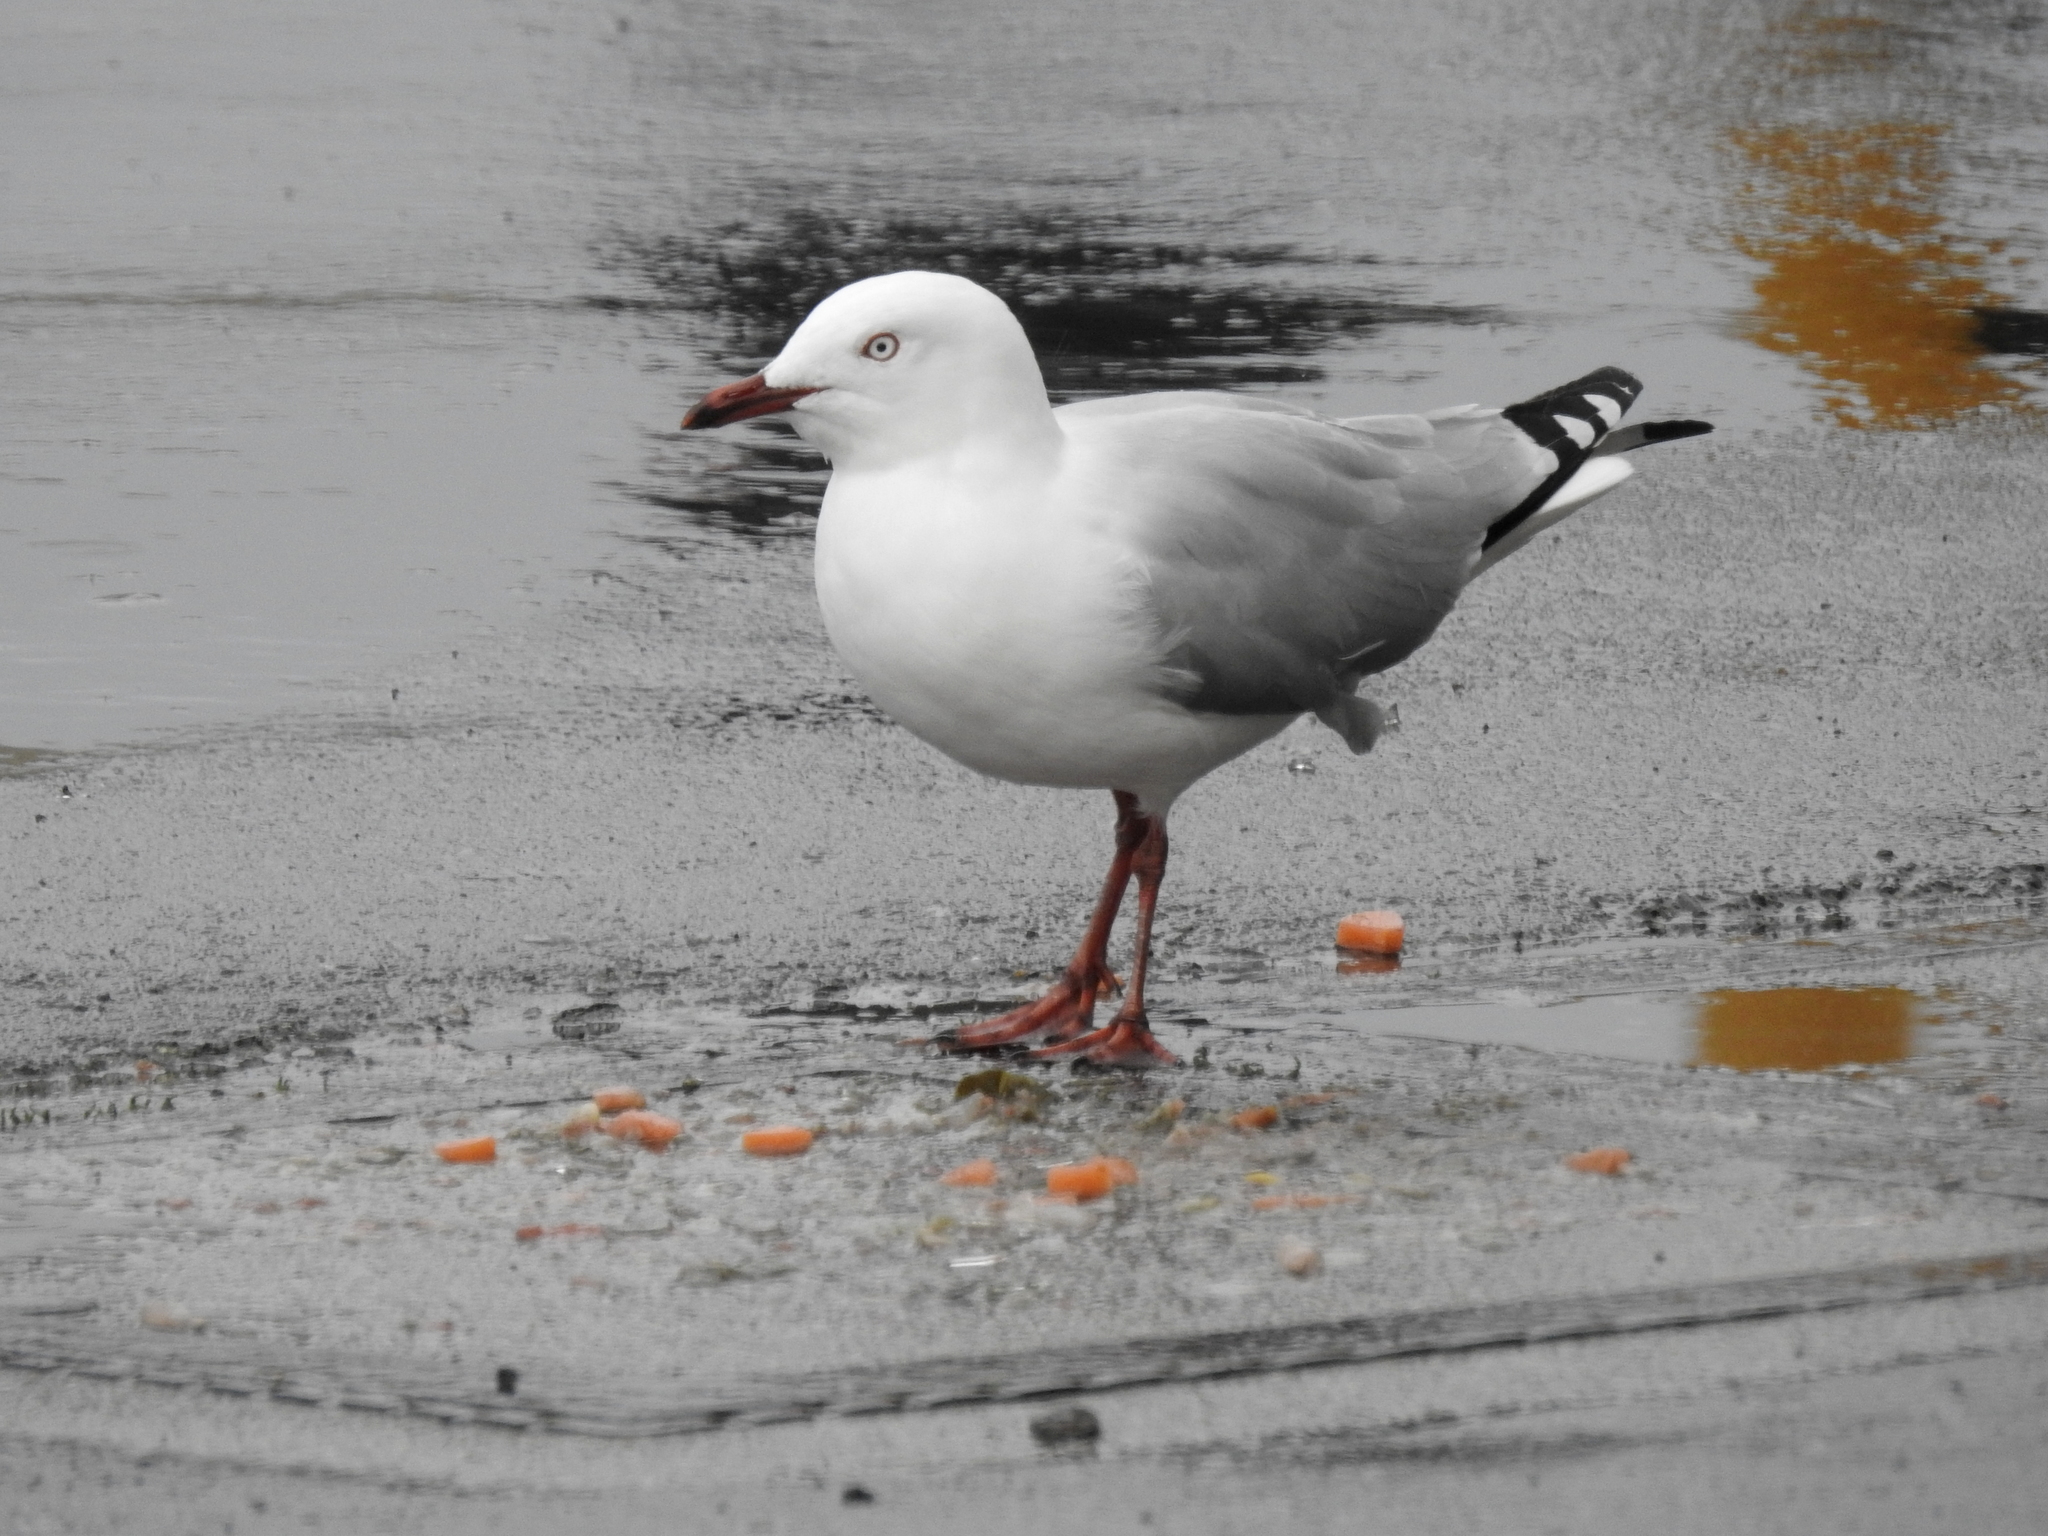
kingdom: Animalia
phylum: Chordata
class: Aves
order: Charadriiformes
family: Laridae
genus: Chroicocephalus
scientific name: Chroicocephalus novaehollandiae
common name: Silver gull
